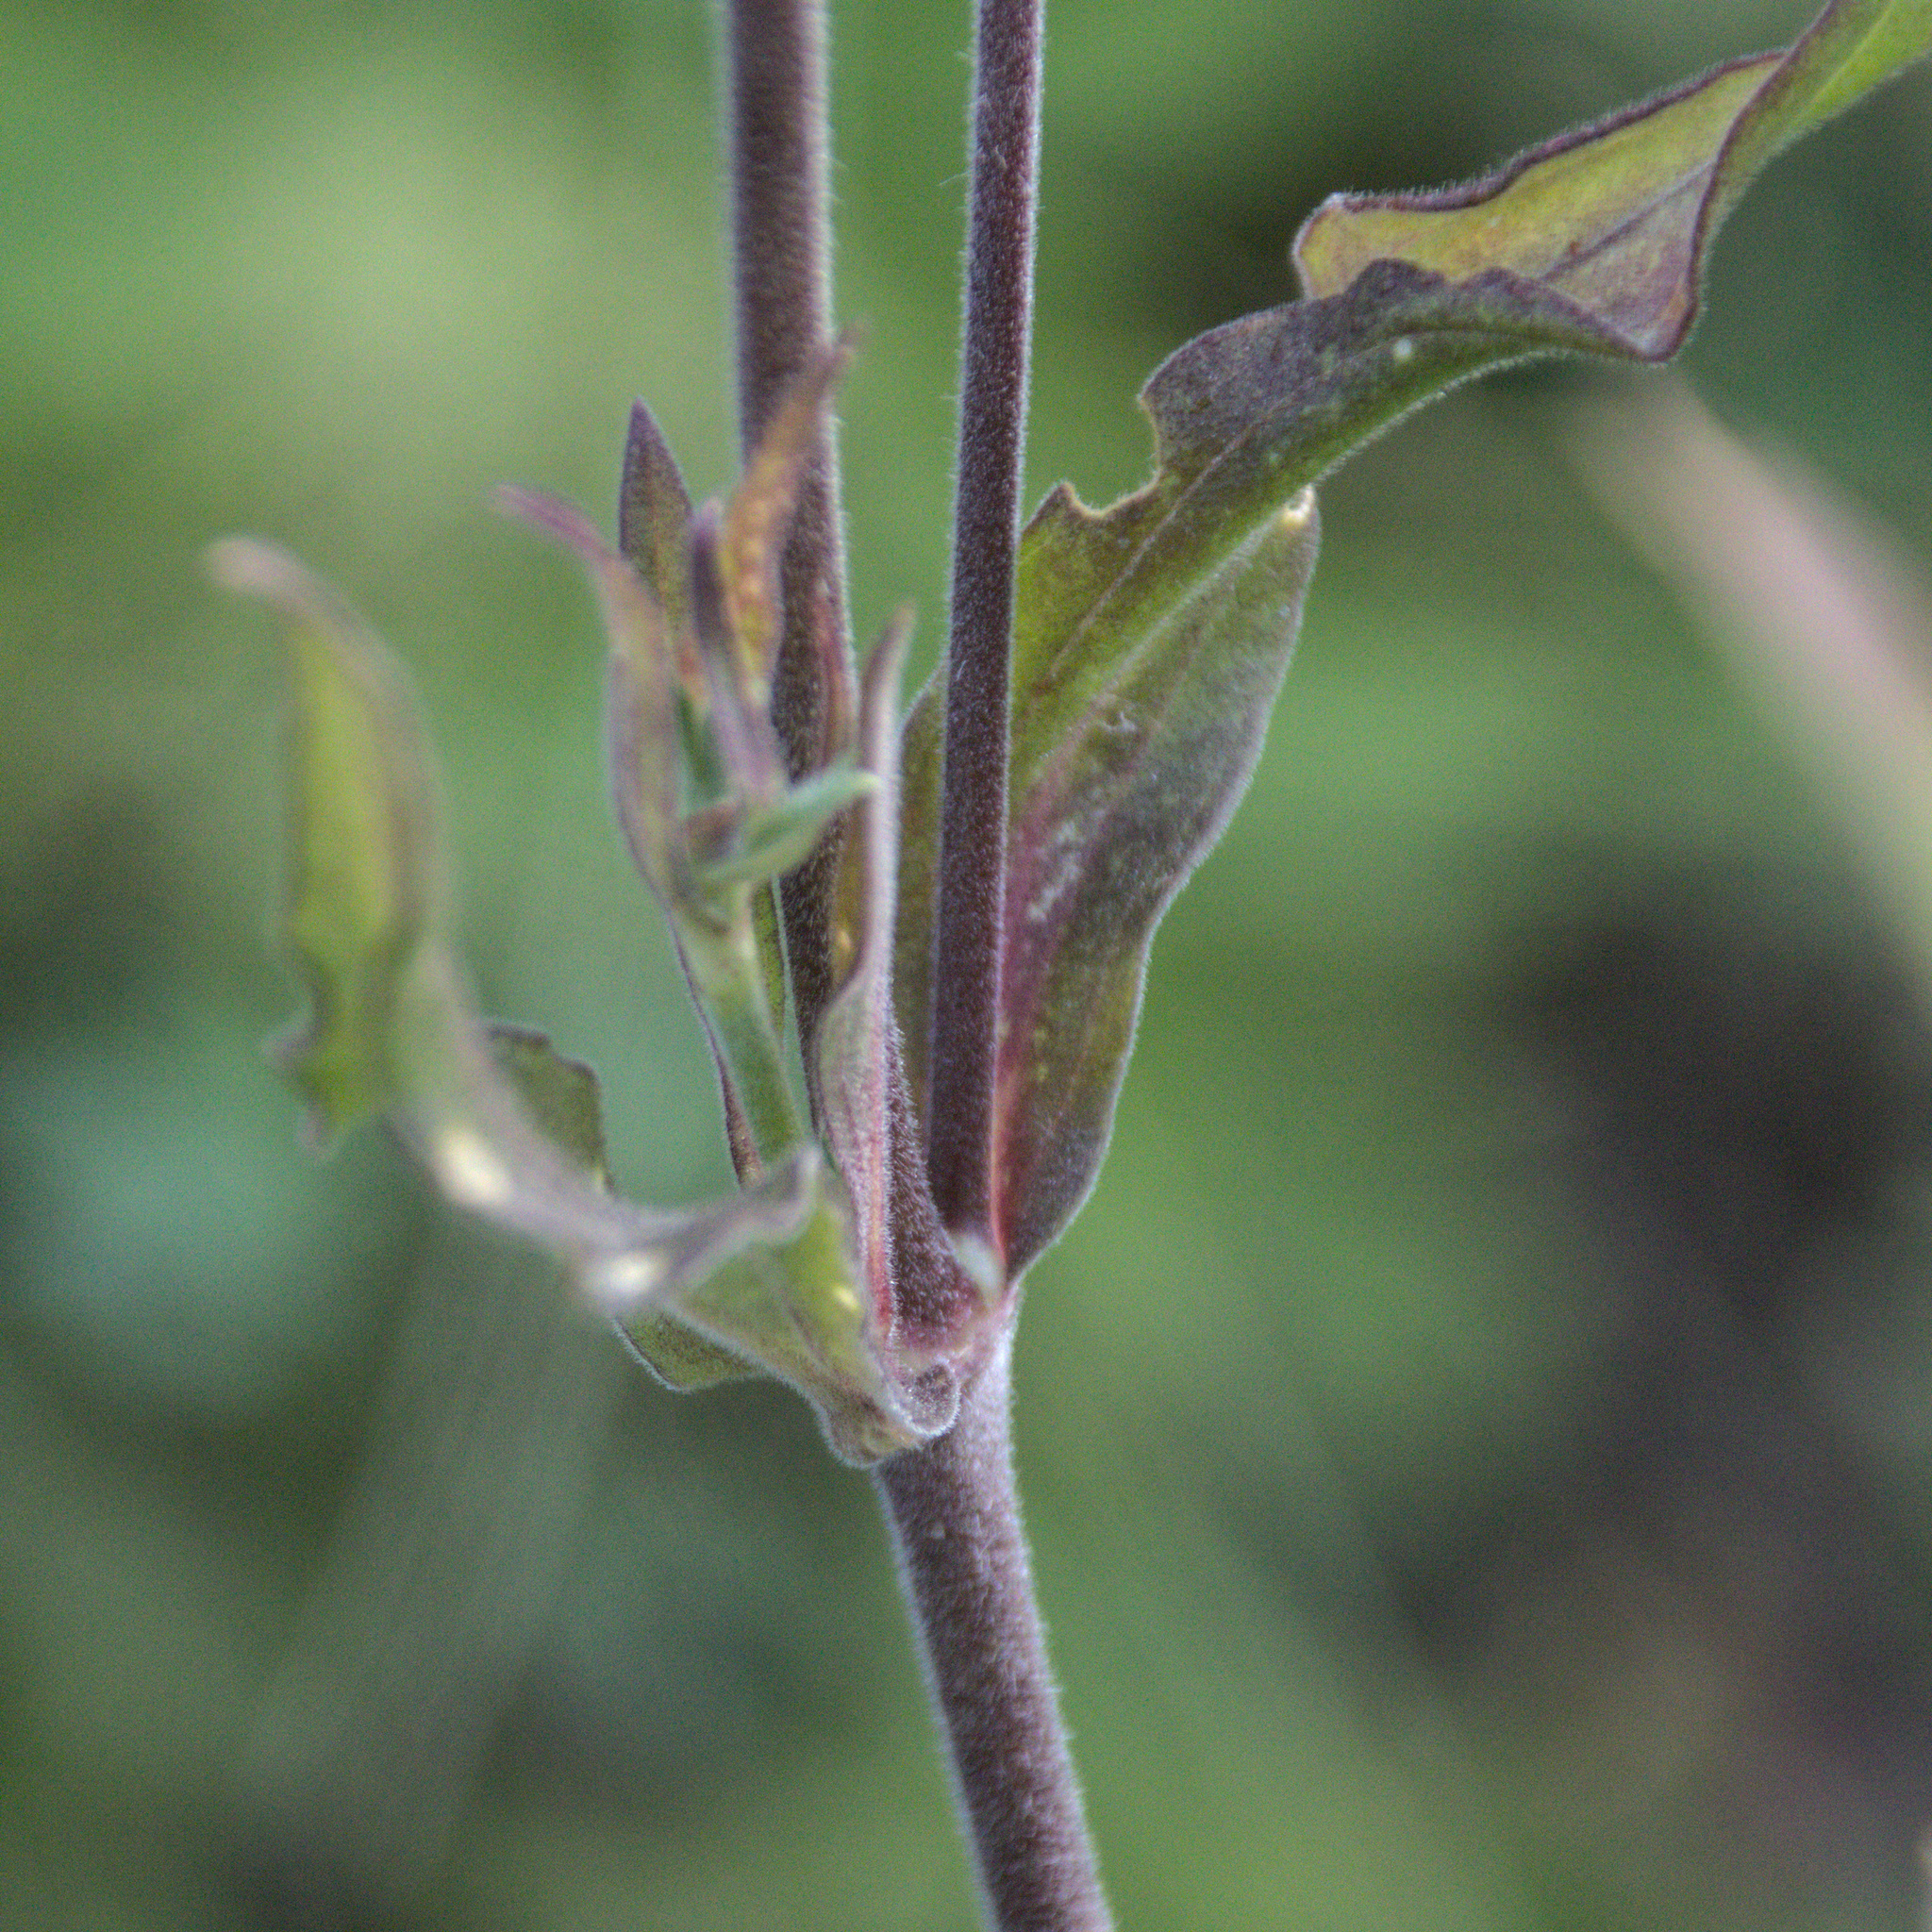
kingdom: Plantae
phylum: Tracheophyta
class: Magnoliopsida
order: Caryophyllales
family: Caryophyllaceae
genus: Silene
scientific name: Silene latifolia
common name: White campion
